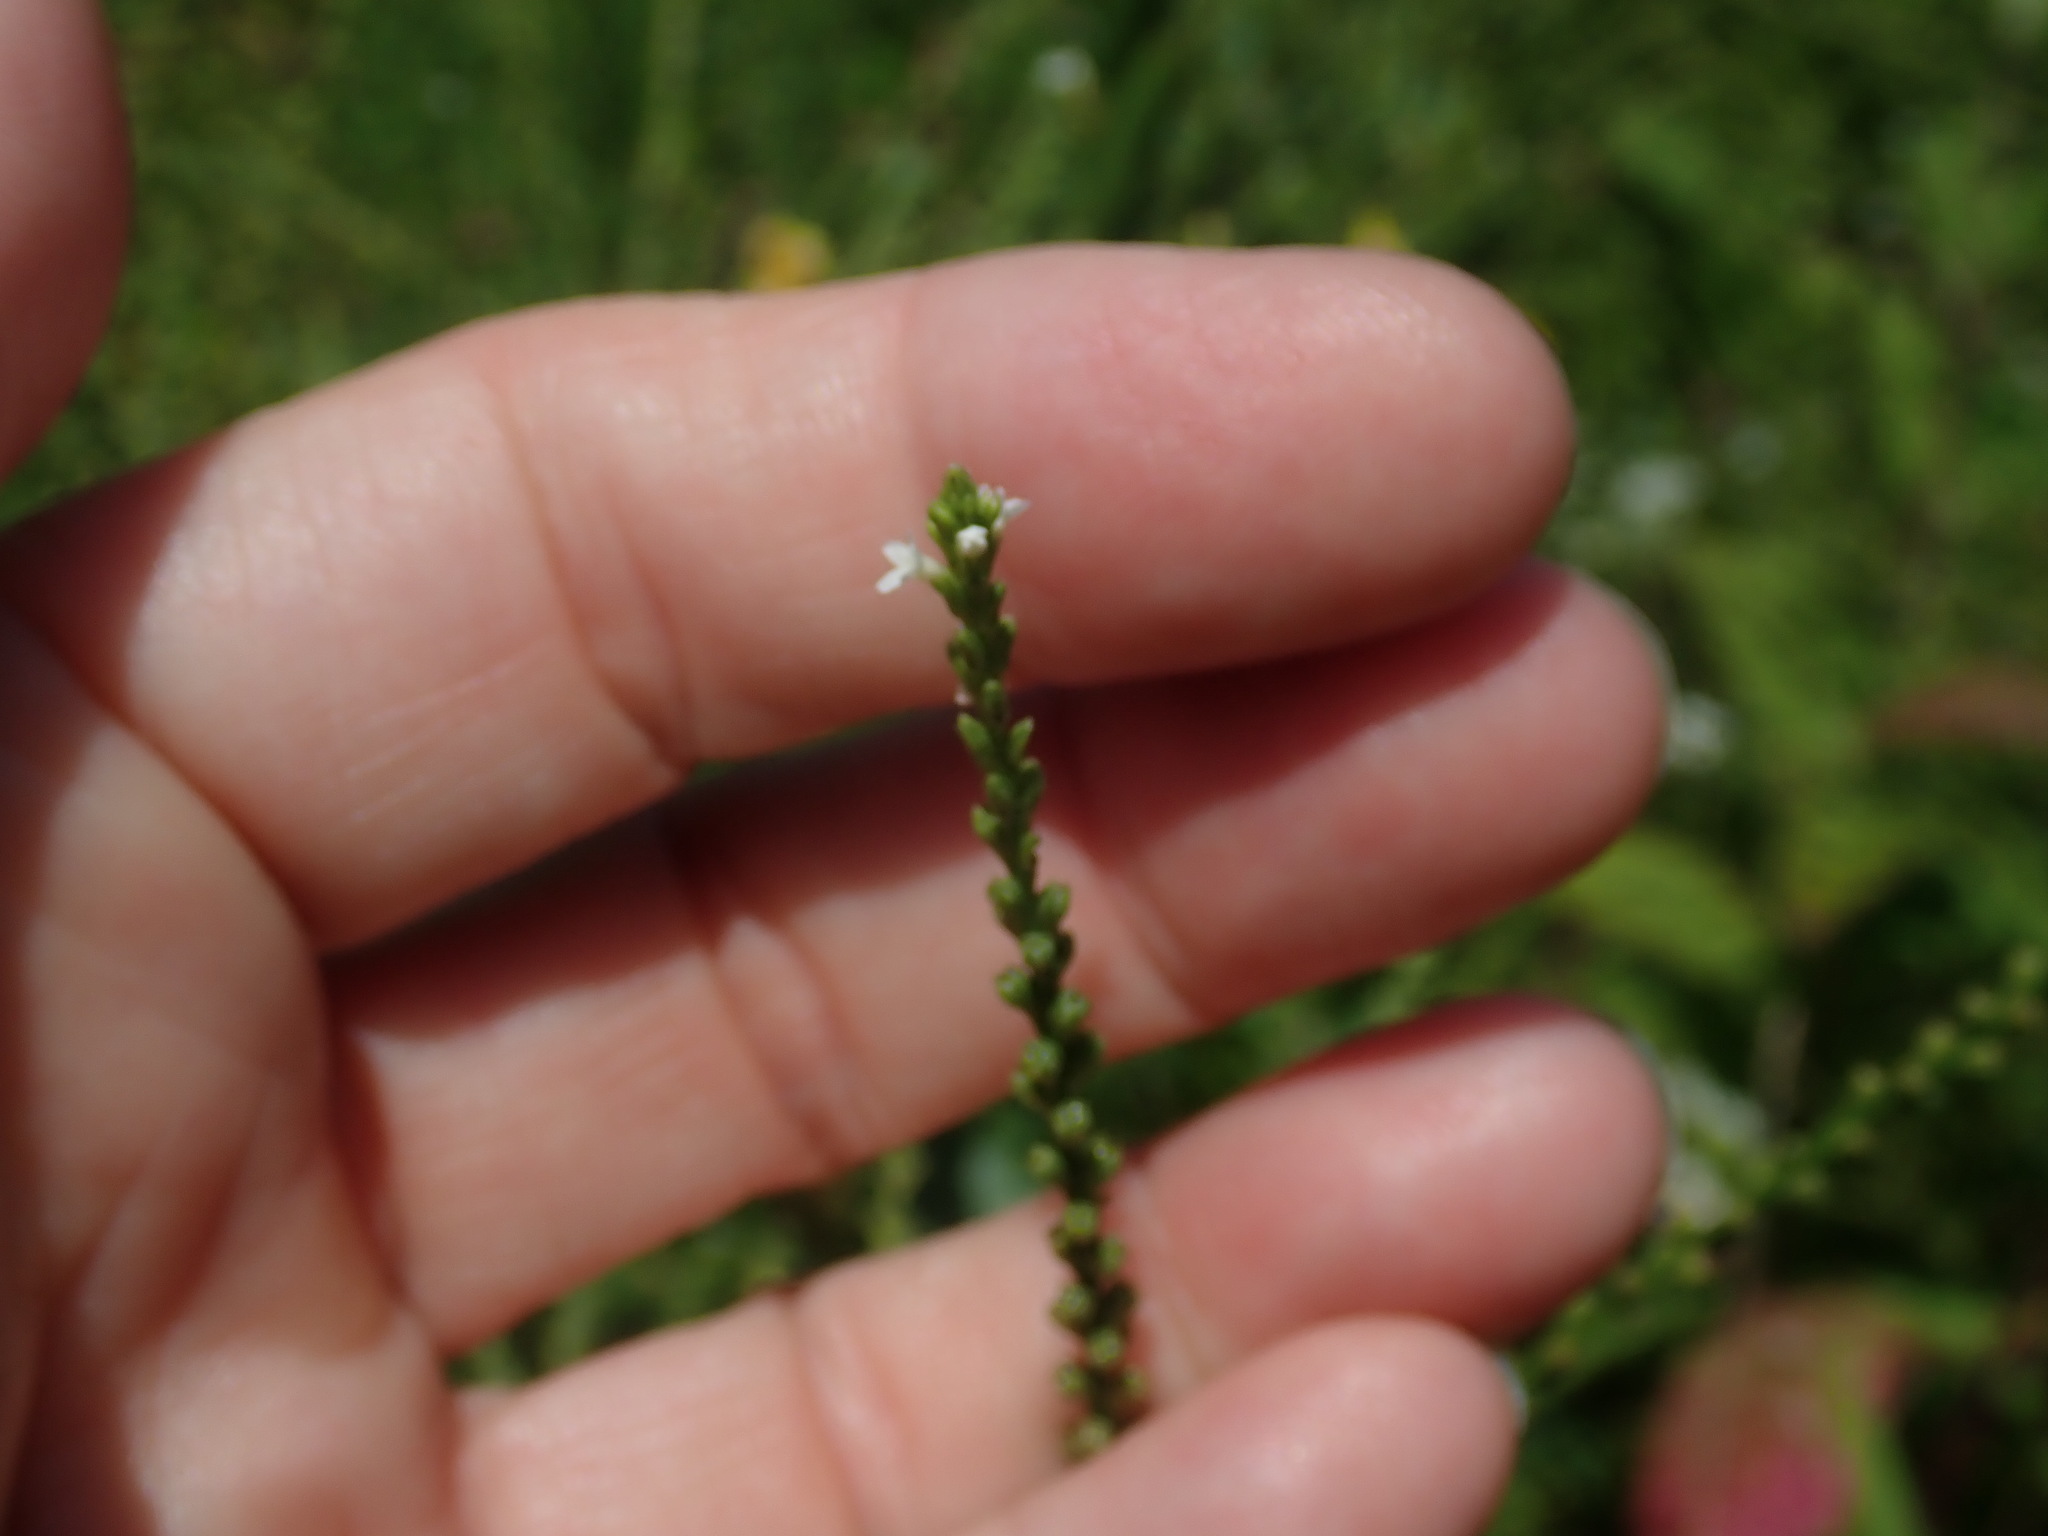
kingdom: Plantae
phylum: Tracheophyta
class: Magnoliopsida
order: Lamiales
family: Verbenaceae
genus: Verbena
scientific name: Verbena urticifolia
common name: Nettle-leaved vervain
